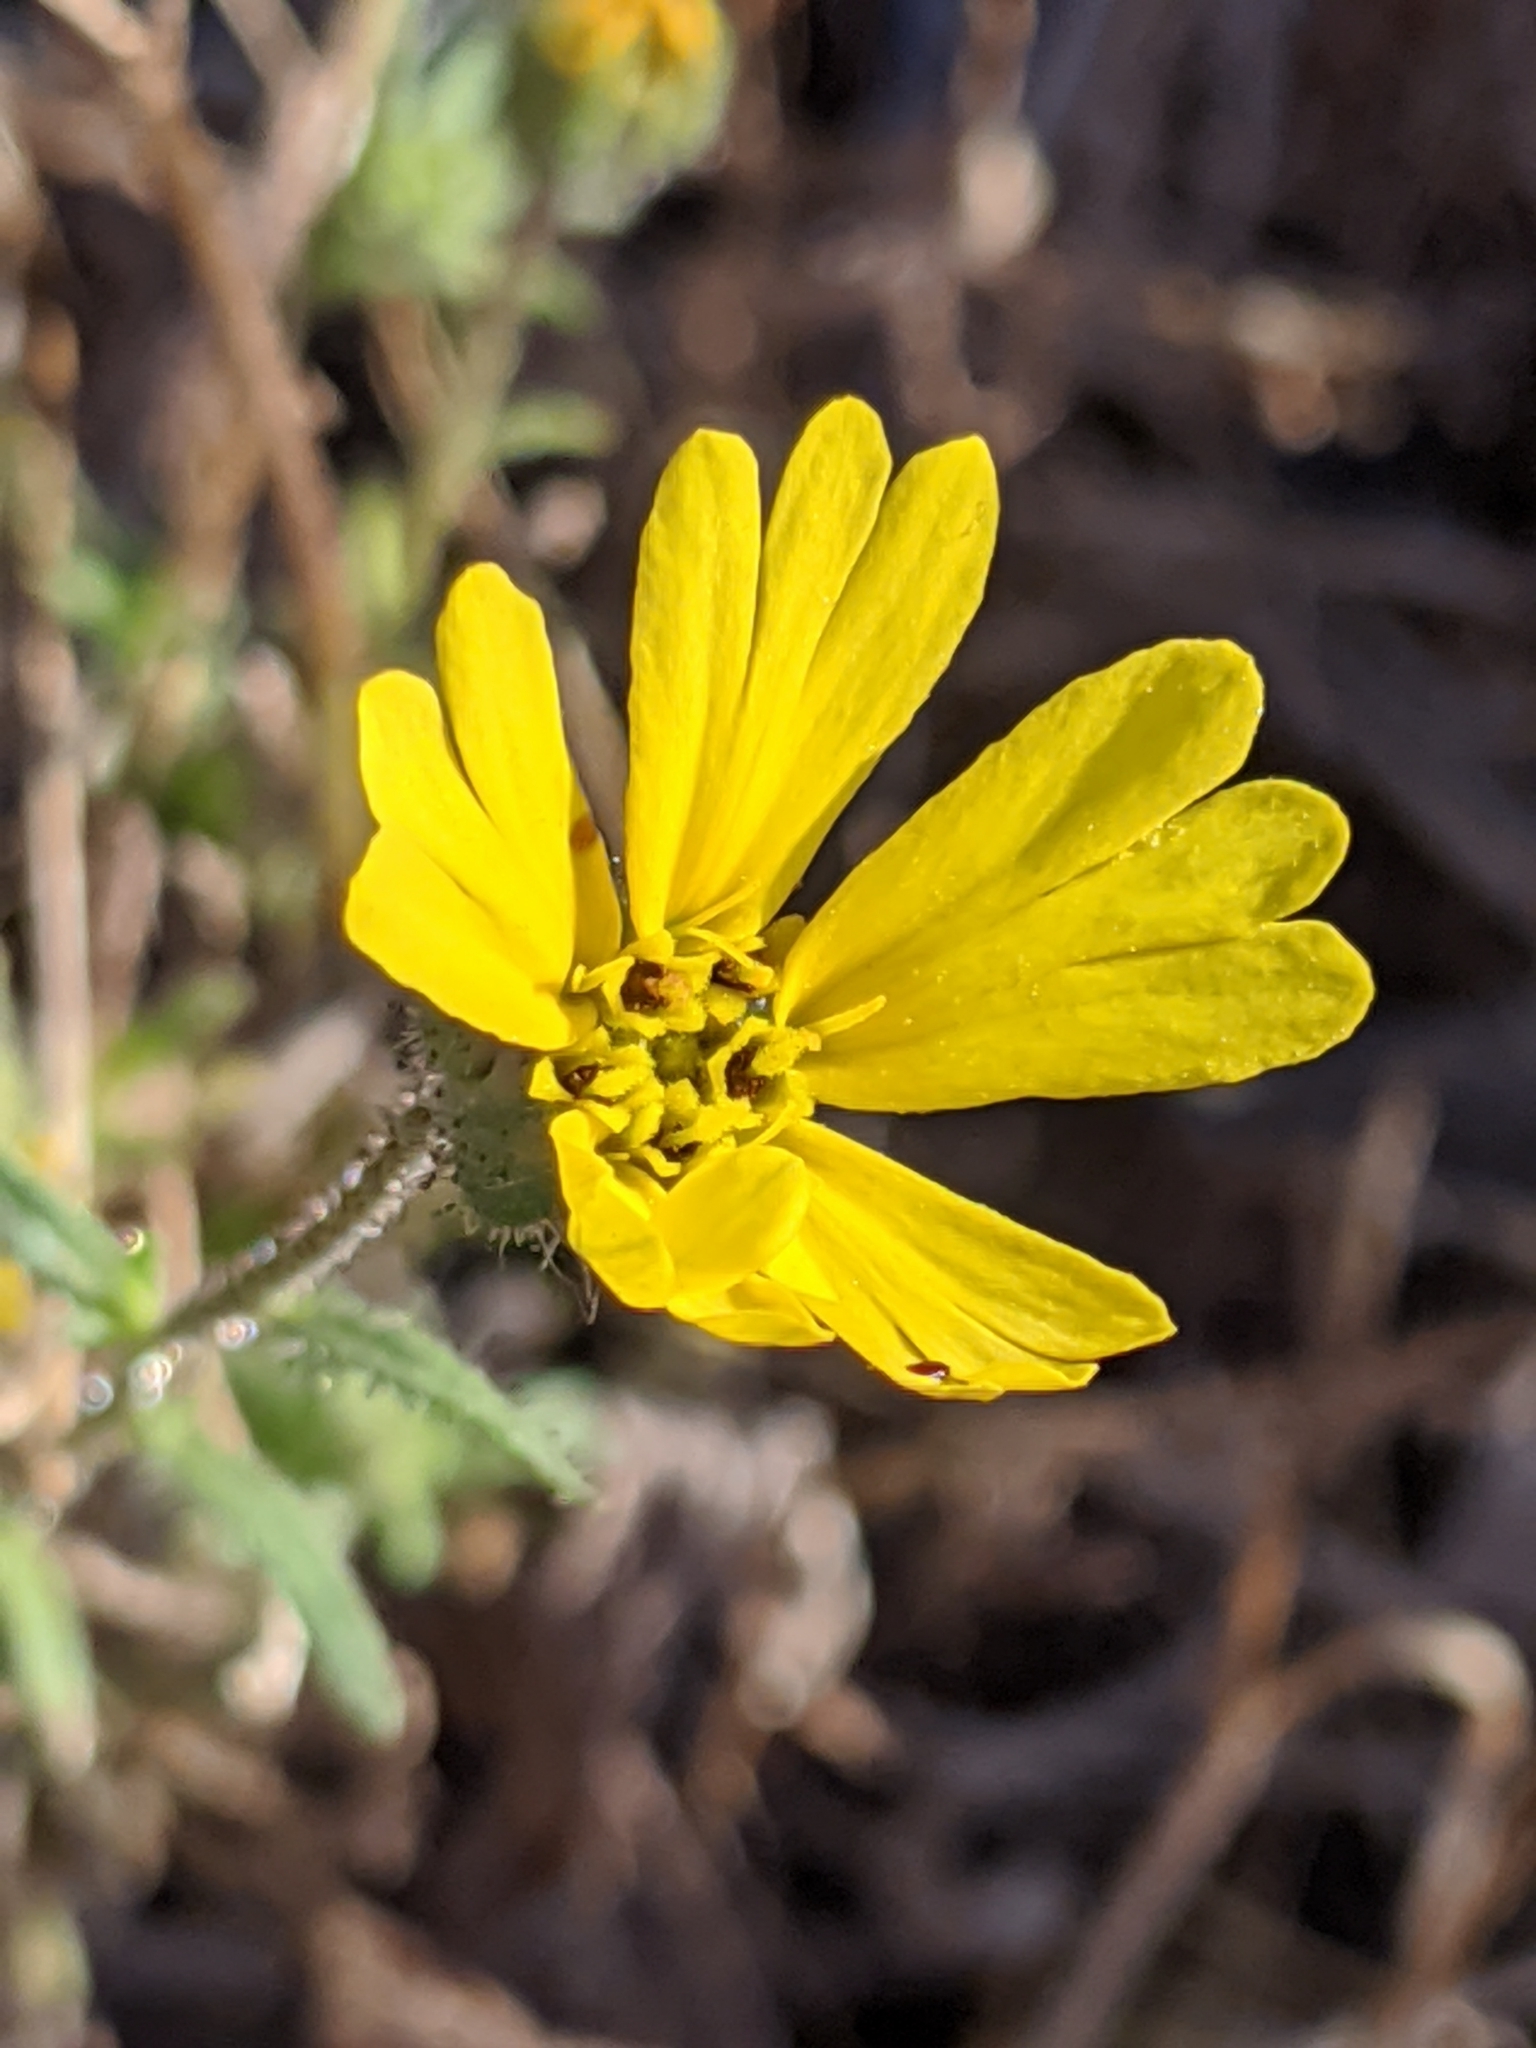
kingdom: Plantae
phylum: Tracheophyta
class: Magnoliopsida
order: Asterales
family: Asteraceae
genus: Madia
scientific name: Madia elegans
